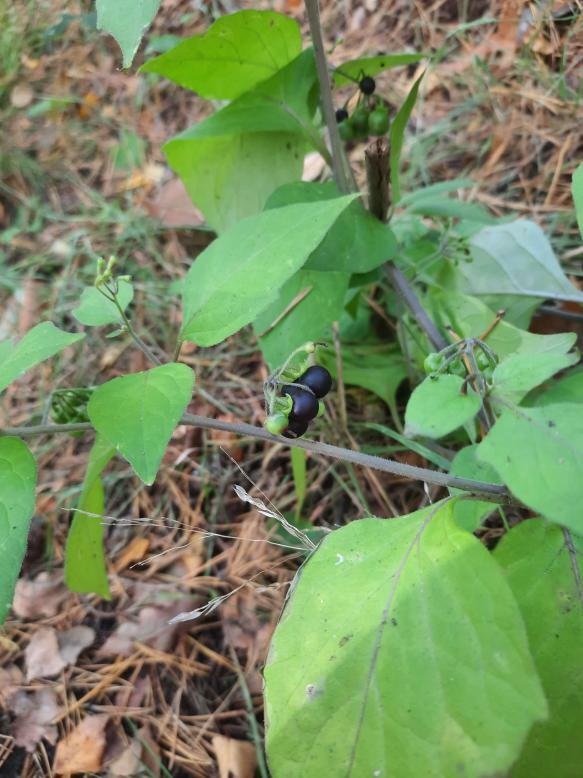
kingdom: Plantae
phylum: Tracheophyta
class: Magnoliopsida
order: Solanales
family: Solanaceae
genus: Solanum
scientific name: Solanum nigrum
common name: Black nightshade
